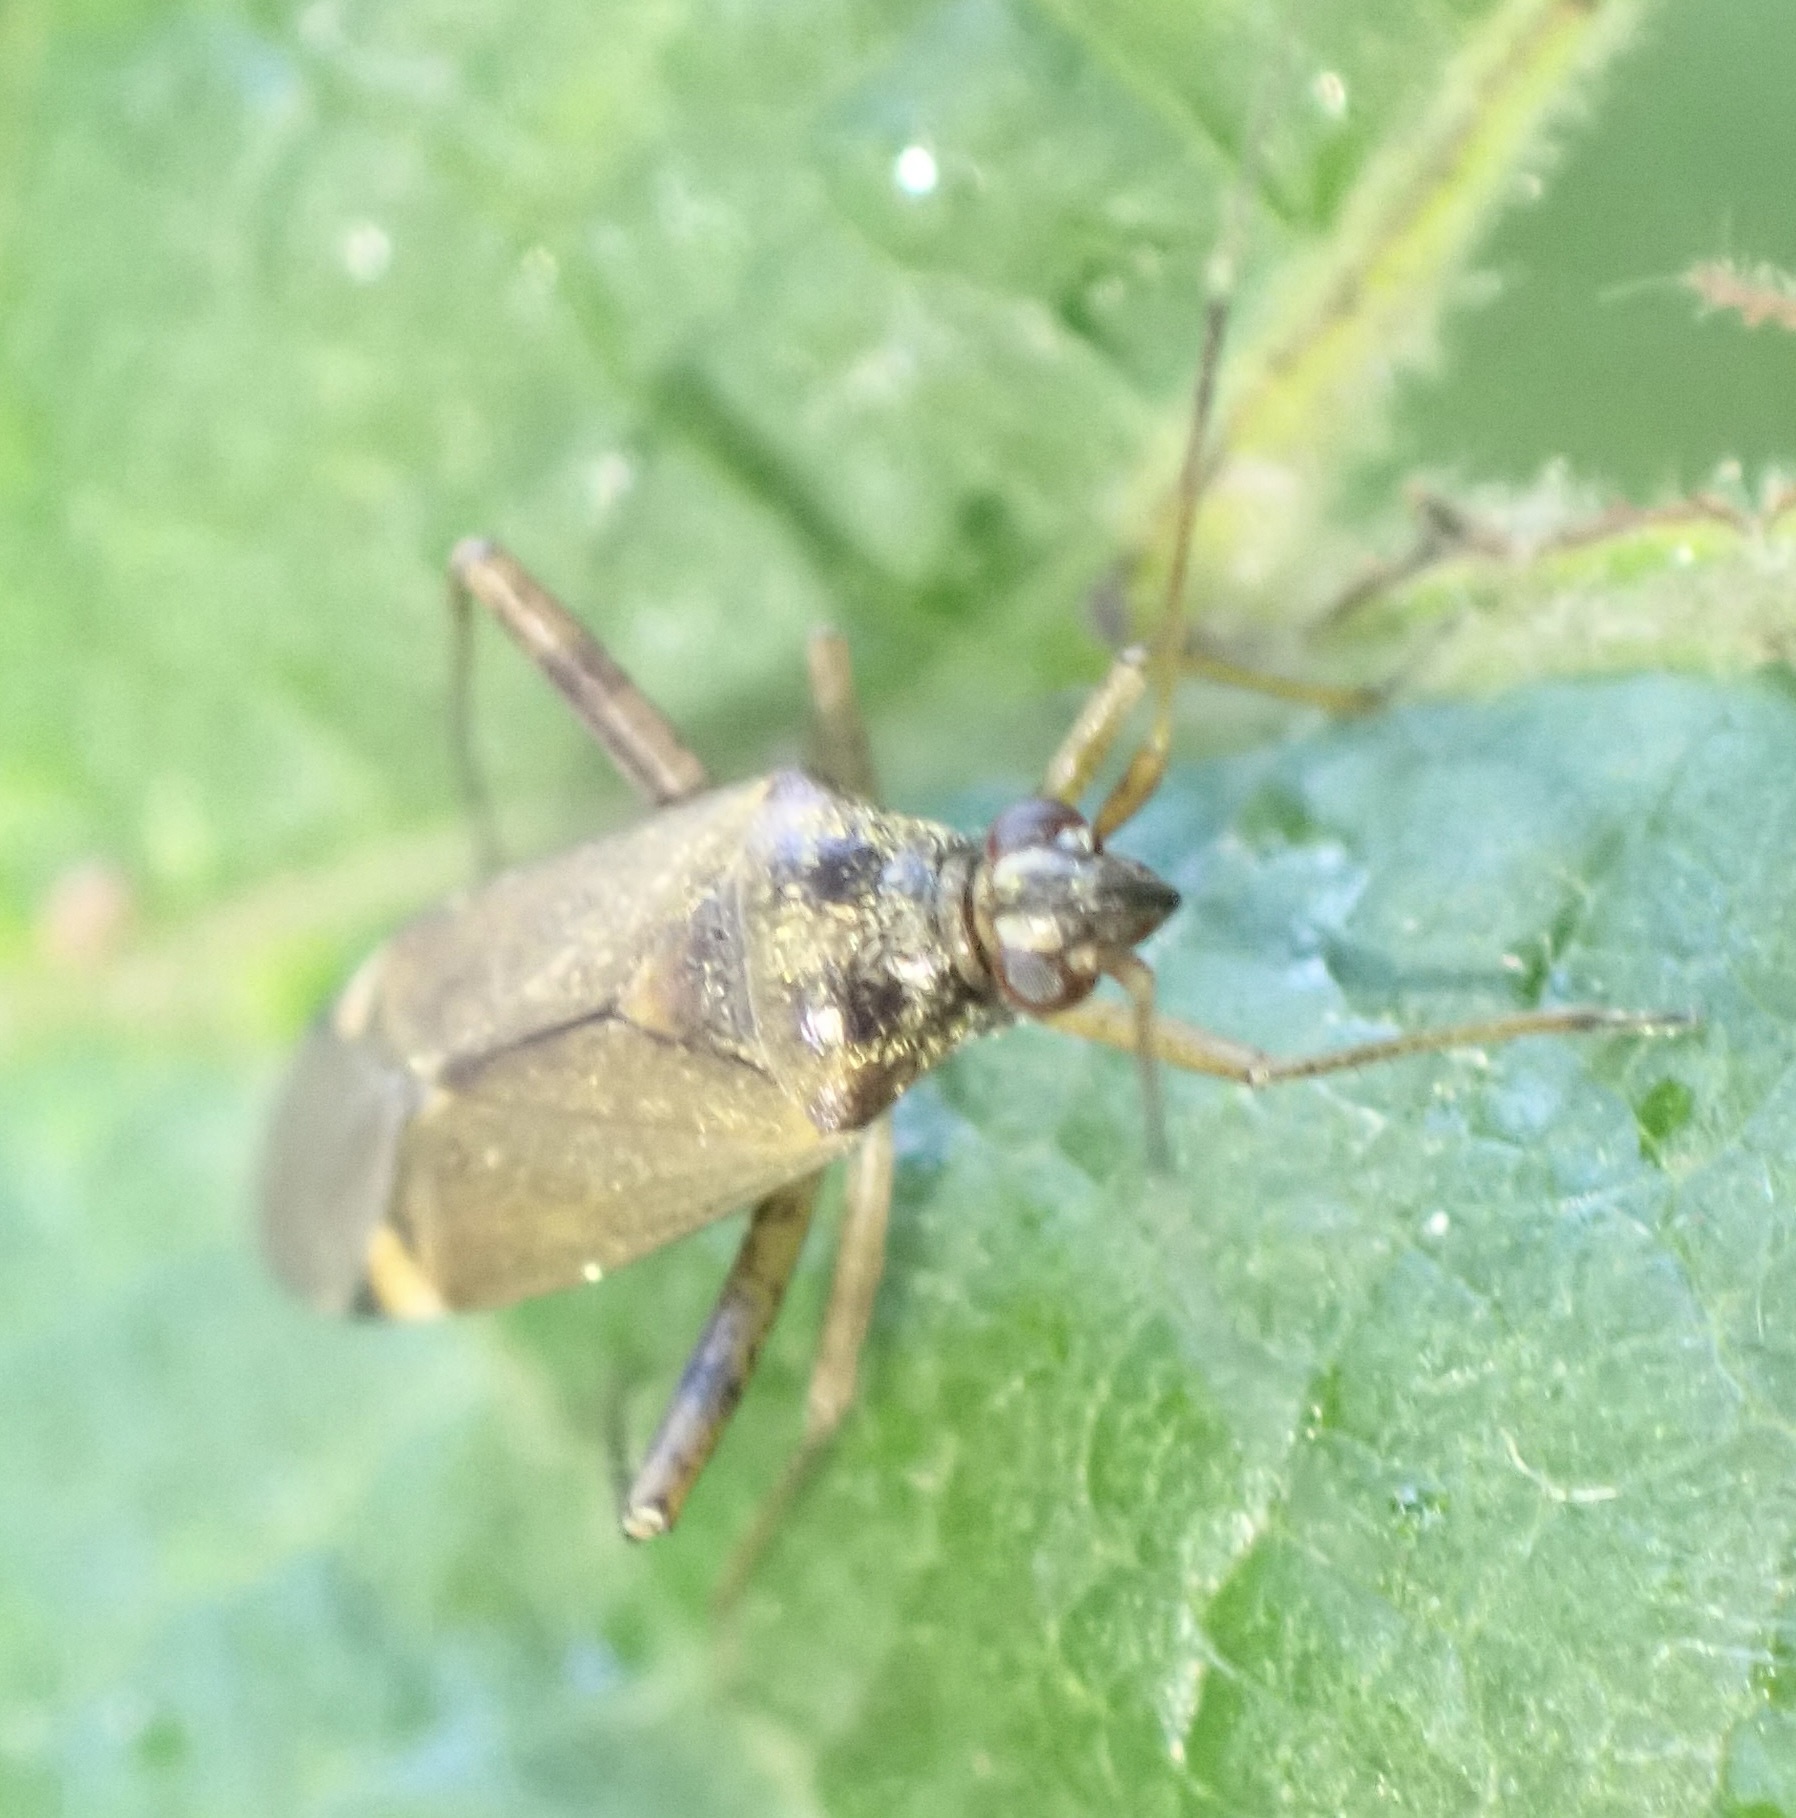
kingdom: Animalia
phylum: Arthropoda
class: Insecta
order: Hemiptera
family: Miridae
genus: Closterotomus
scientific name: Closterotomus fulvomaculatus
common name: Spotted plant bug
